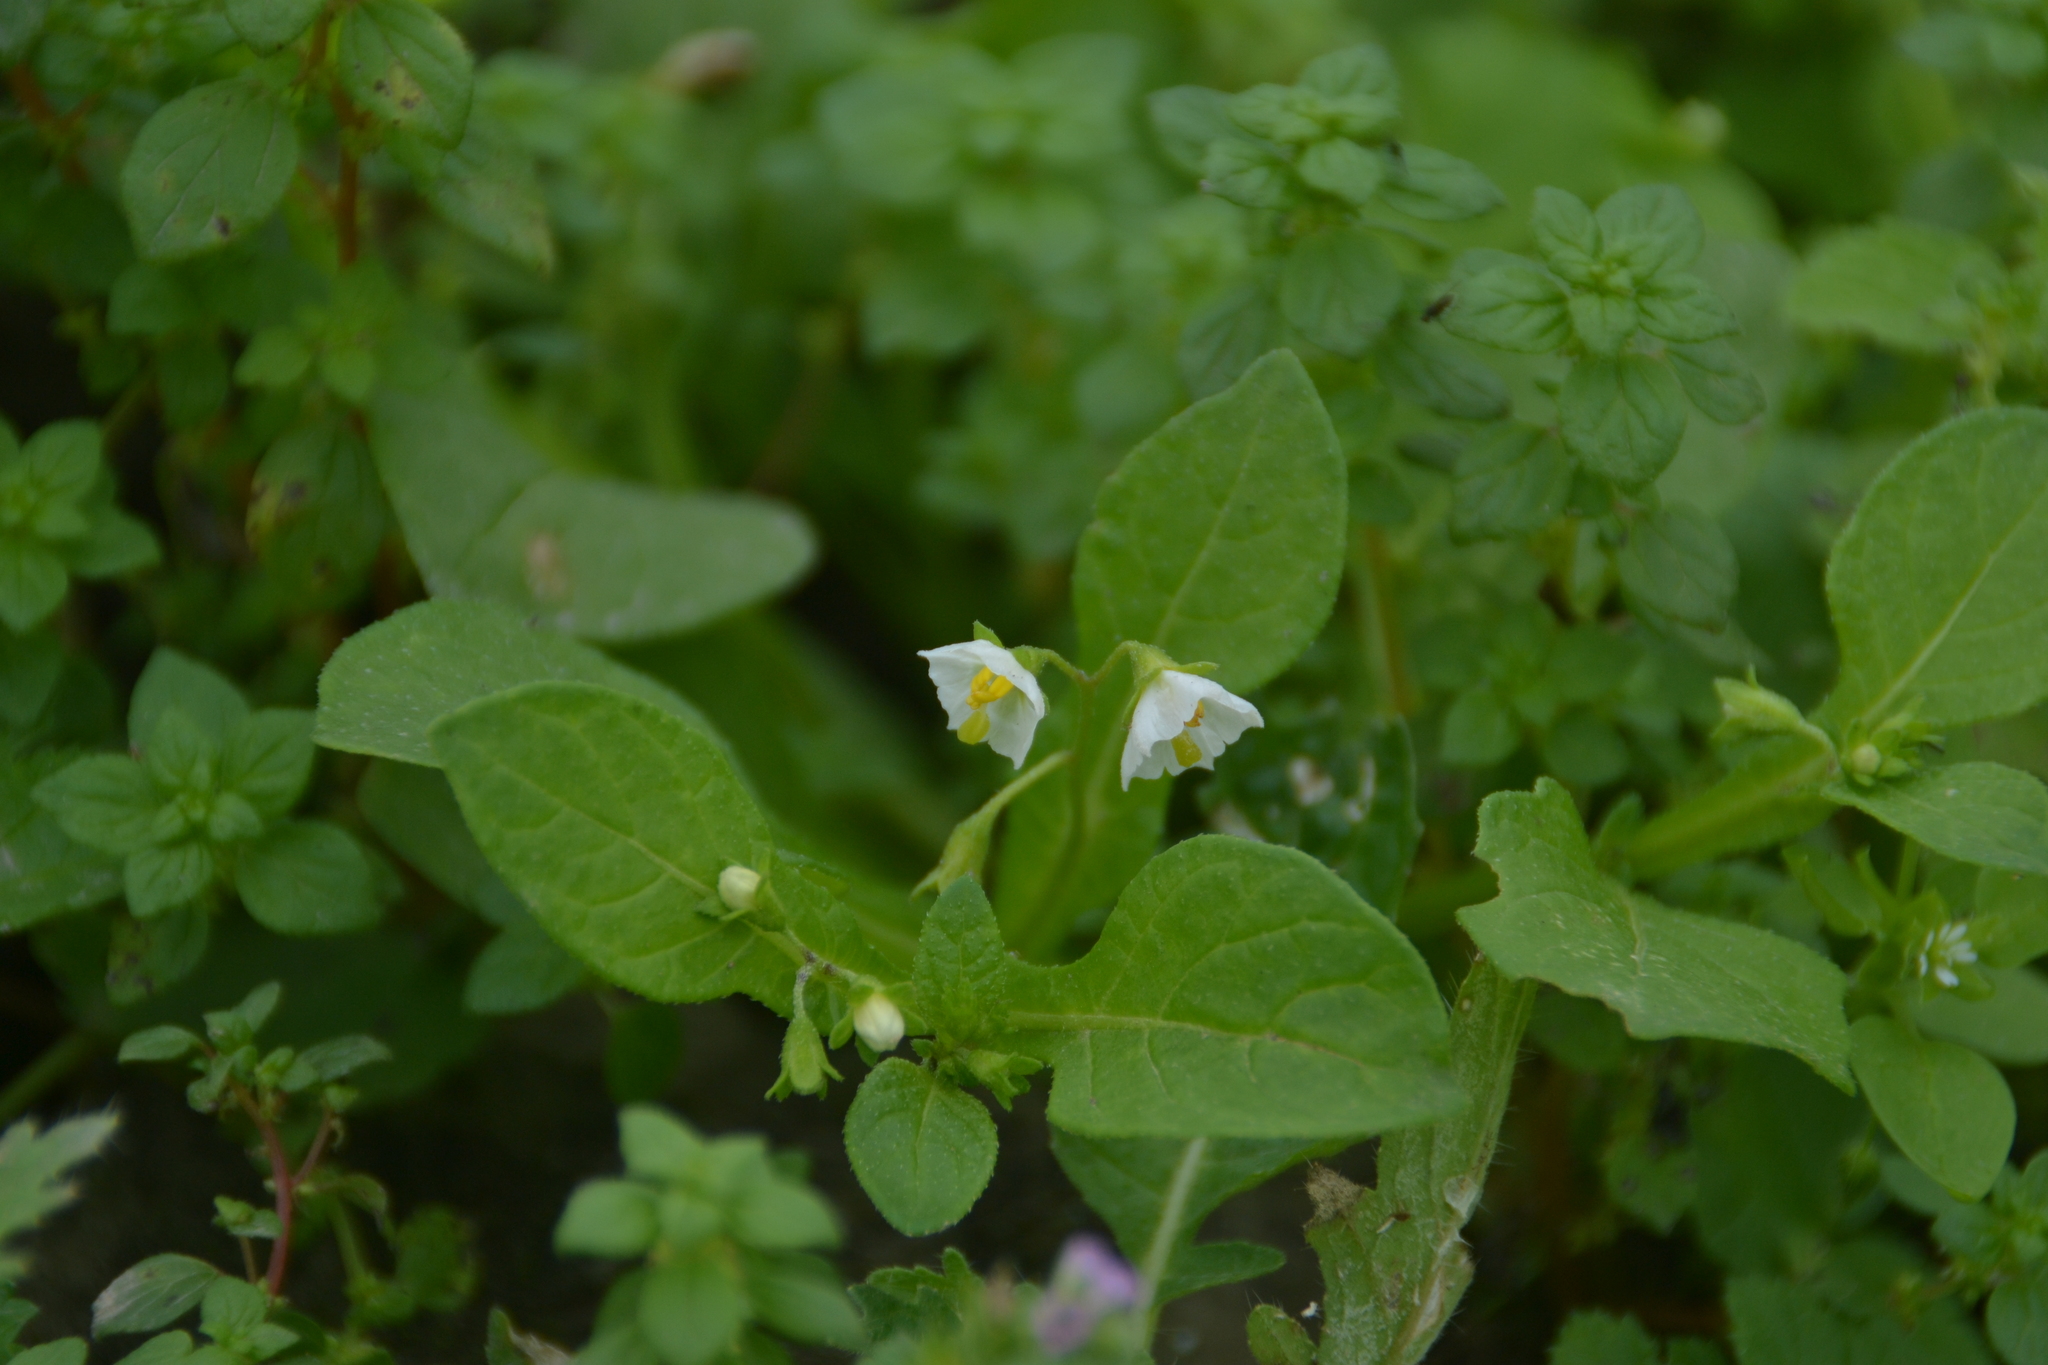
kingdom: Plantae
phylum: Tracheophyta
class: Magnoliopsida
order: Solanales
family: Solanaceae
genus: Solanum
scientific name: Solanum montanum
